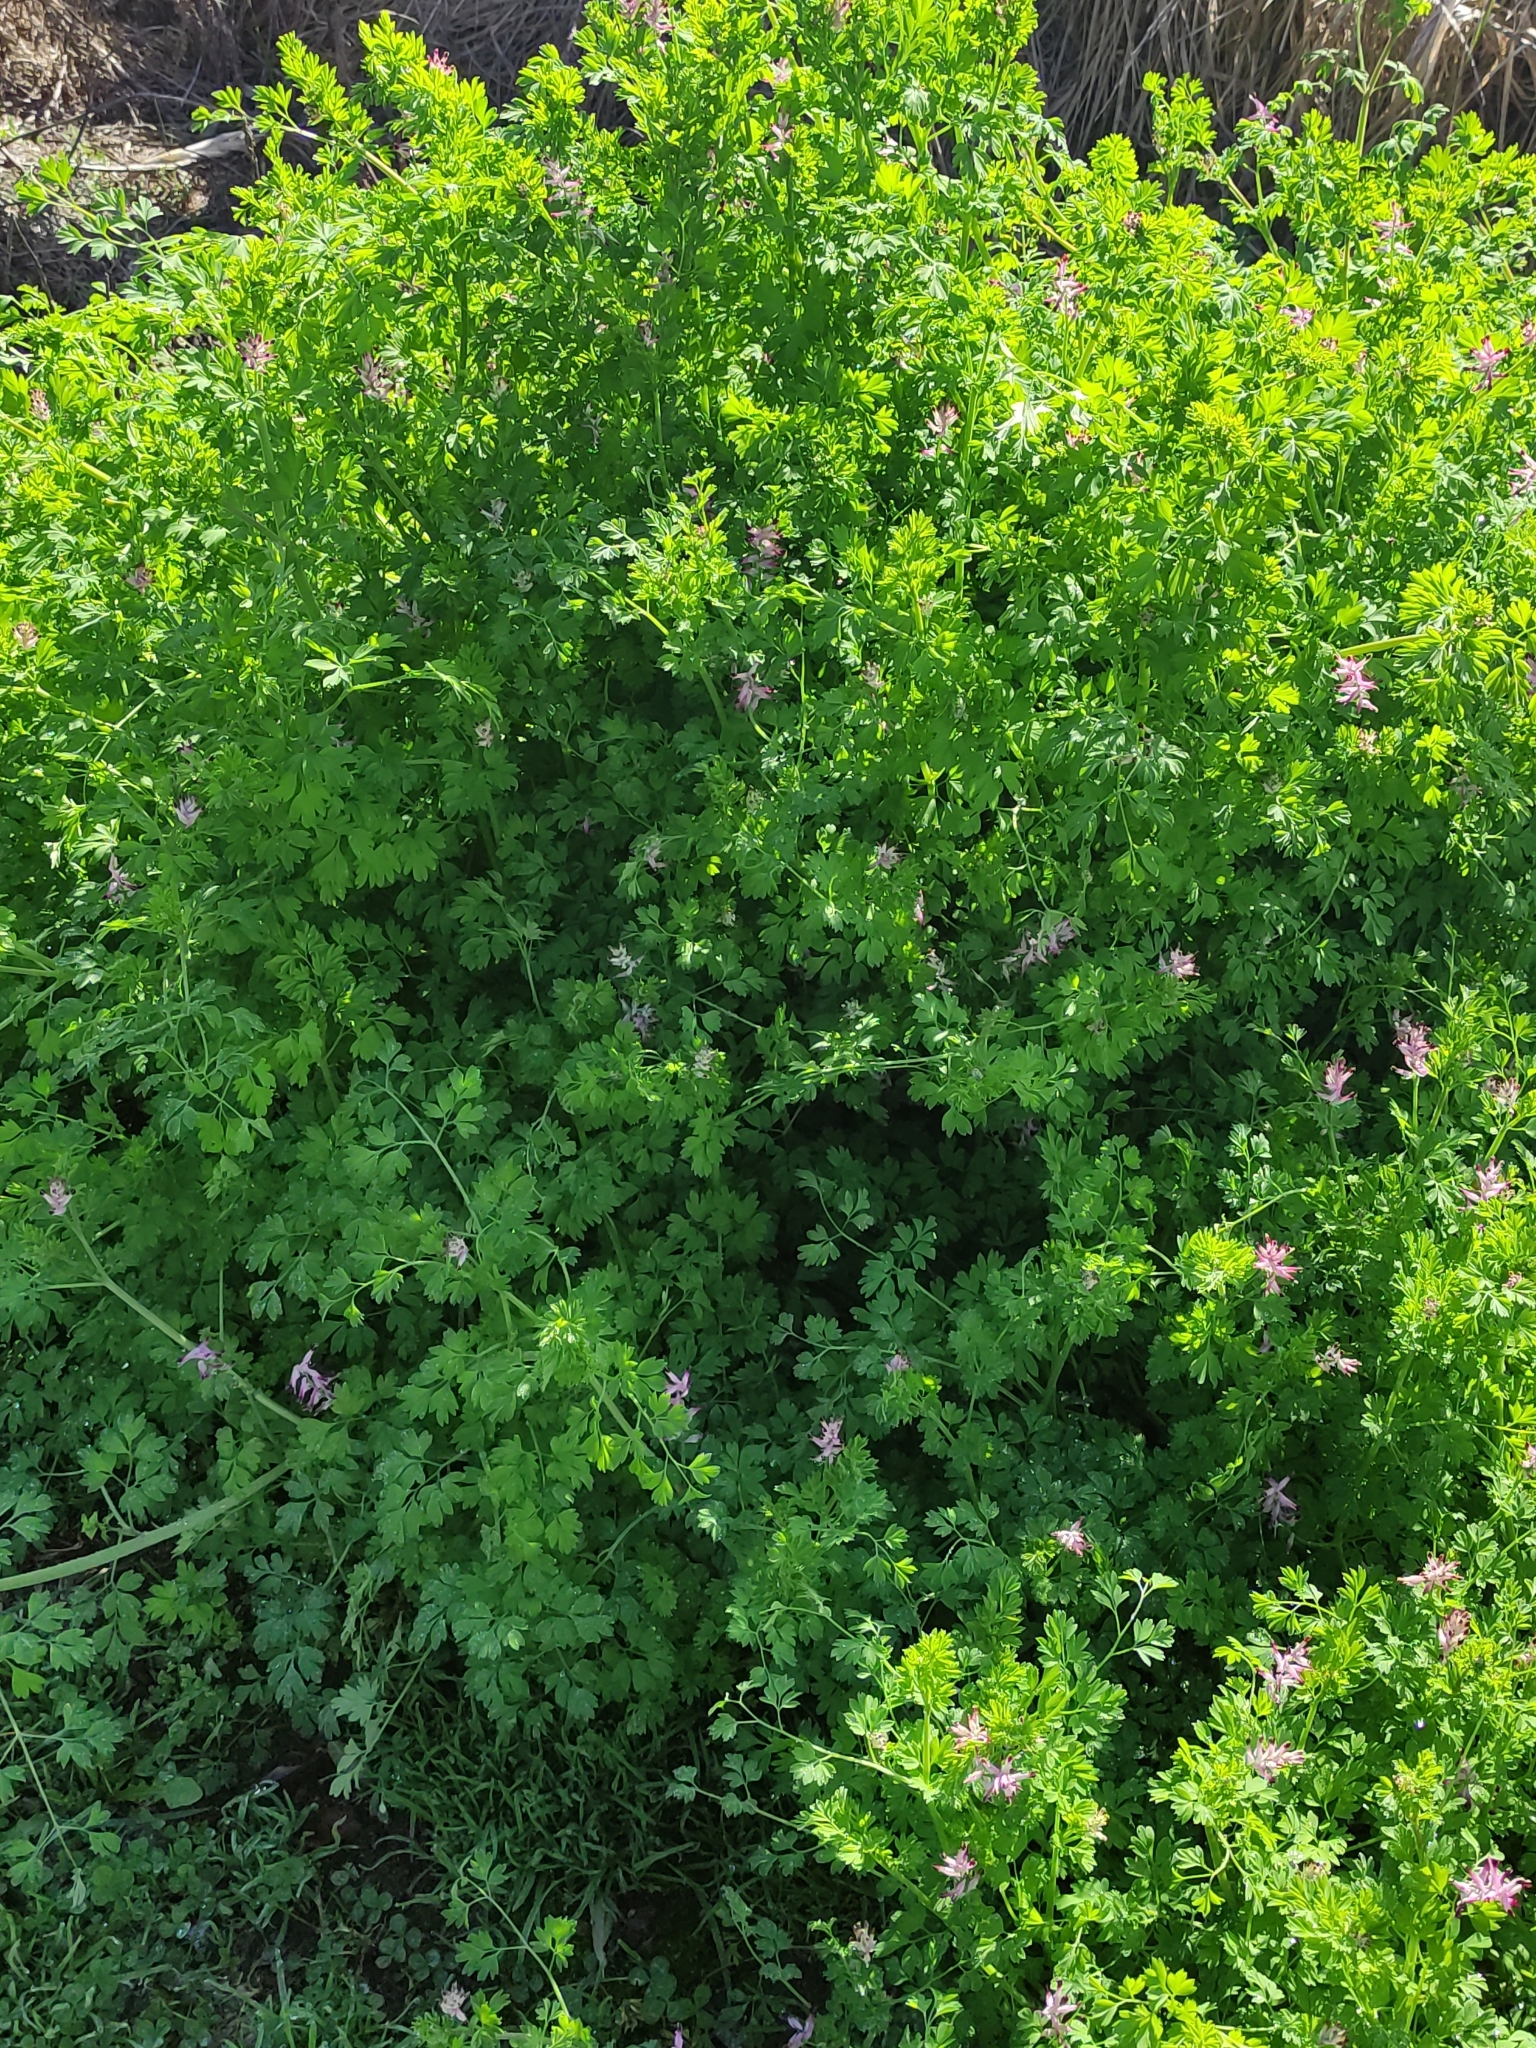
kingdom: Plantae
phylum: Tracheophyta
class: Magnoliopsida
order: Ranunculales
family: Papaveraceae
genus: Fumaria
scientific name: Fumaria muralis
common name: Common ramping-fumitory
